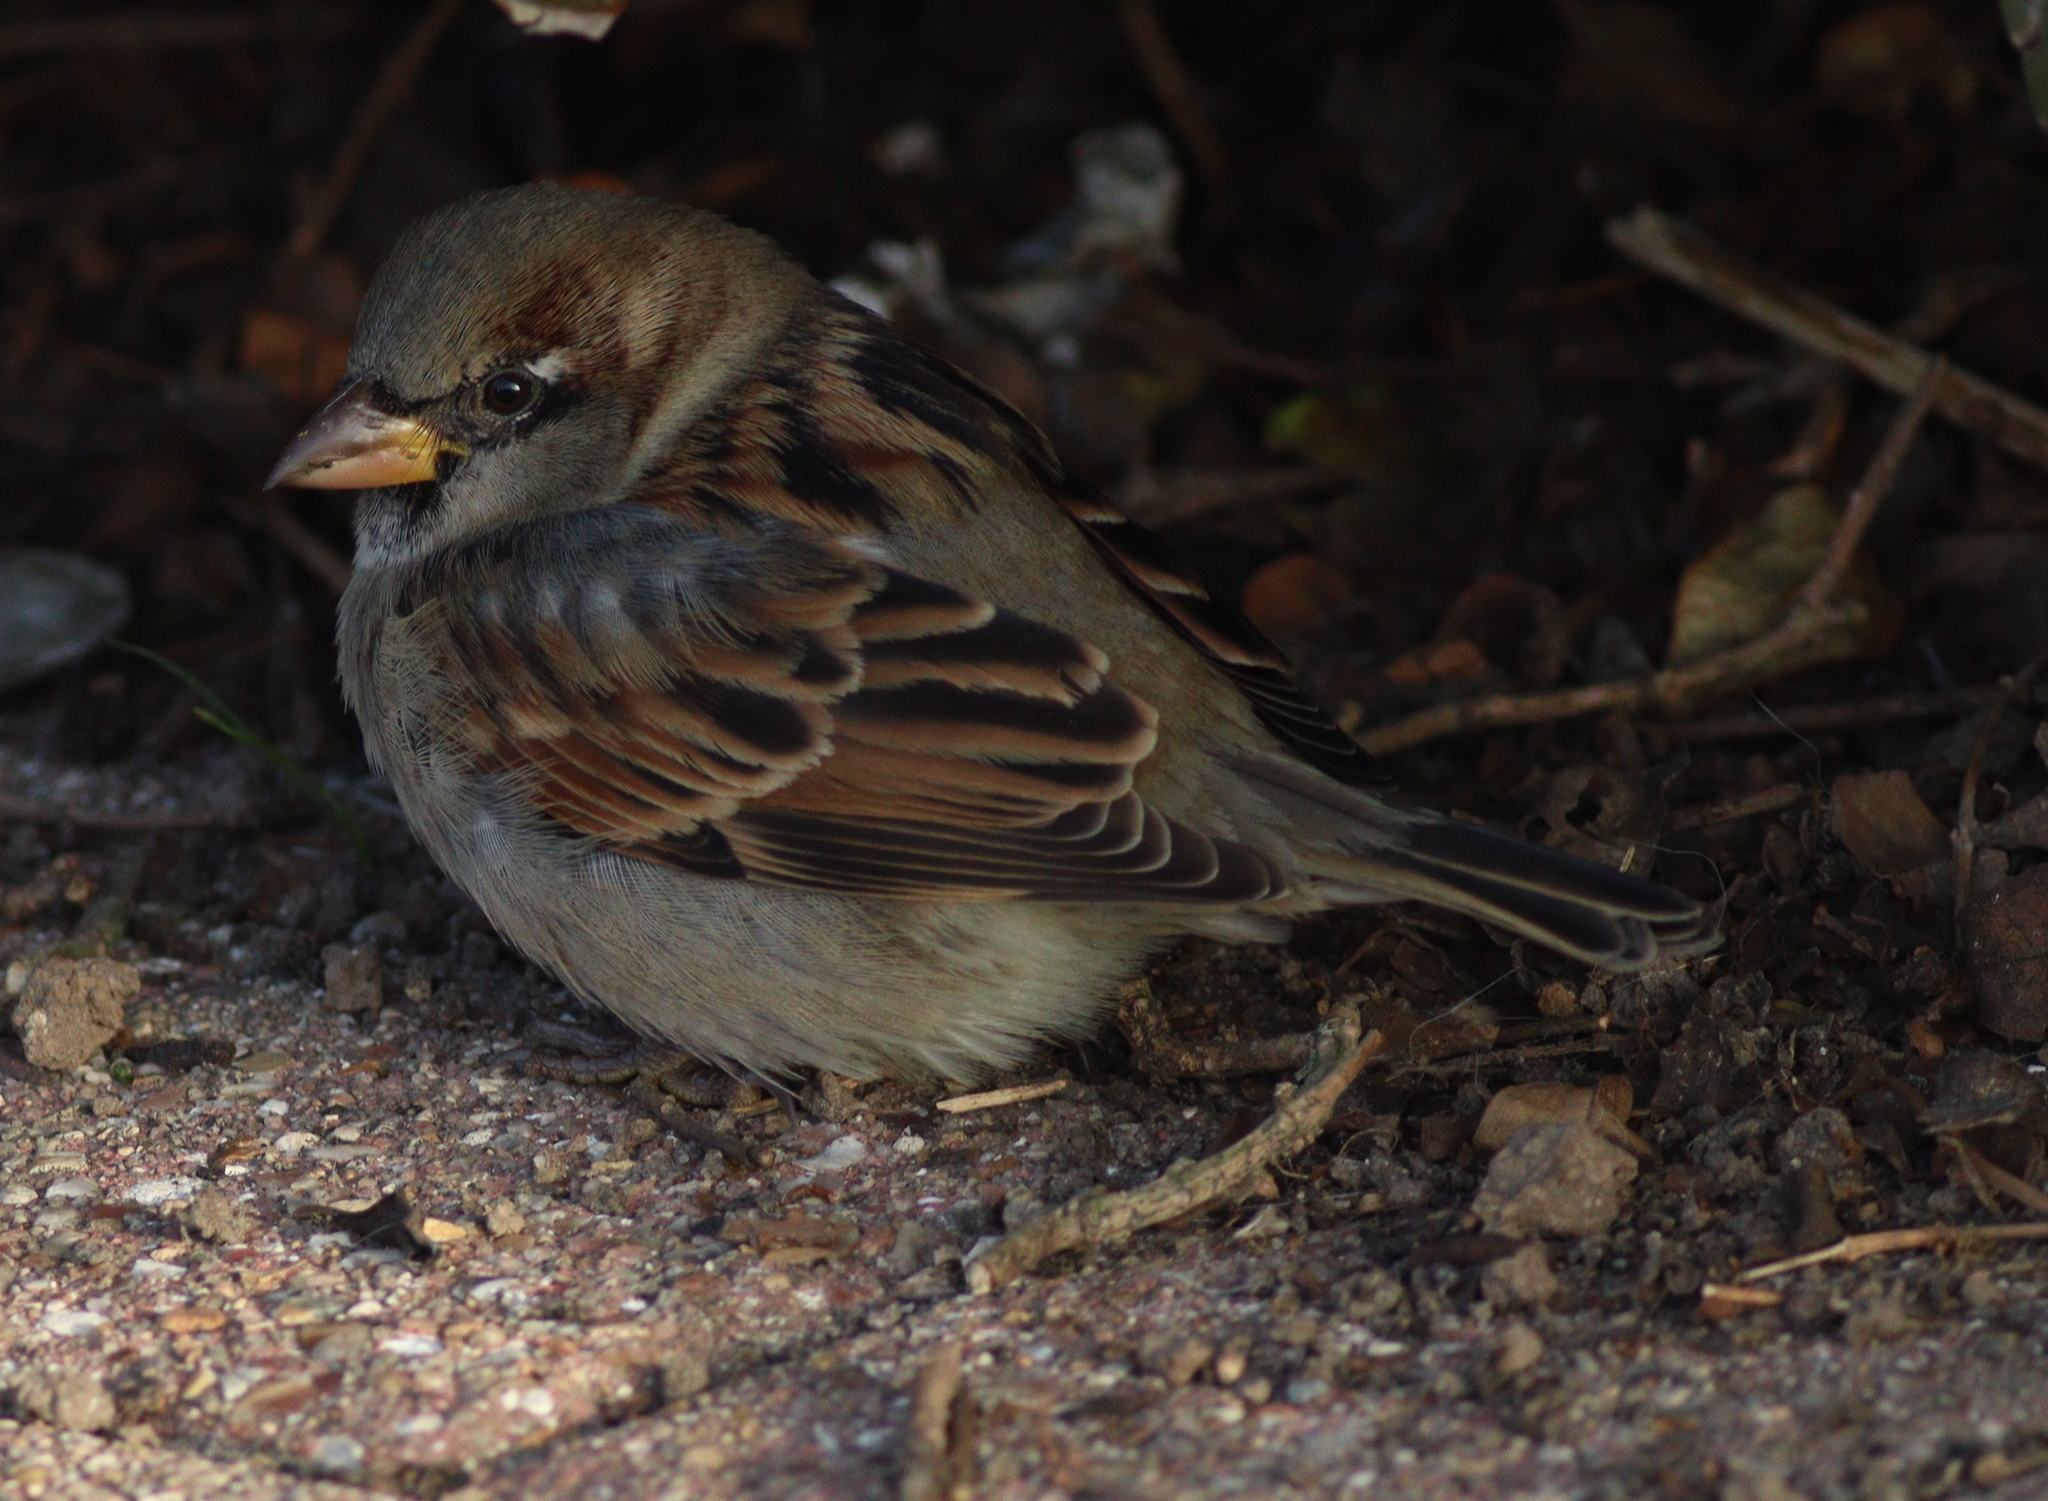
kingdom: Animalia
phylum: Chordata
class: Aves
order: Passeriformes
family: Passeridae
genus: Passer
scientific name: Passer domesticus
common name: House sparrow
